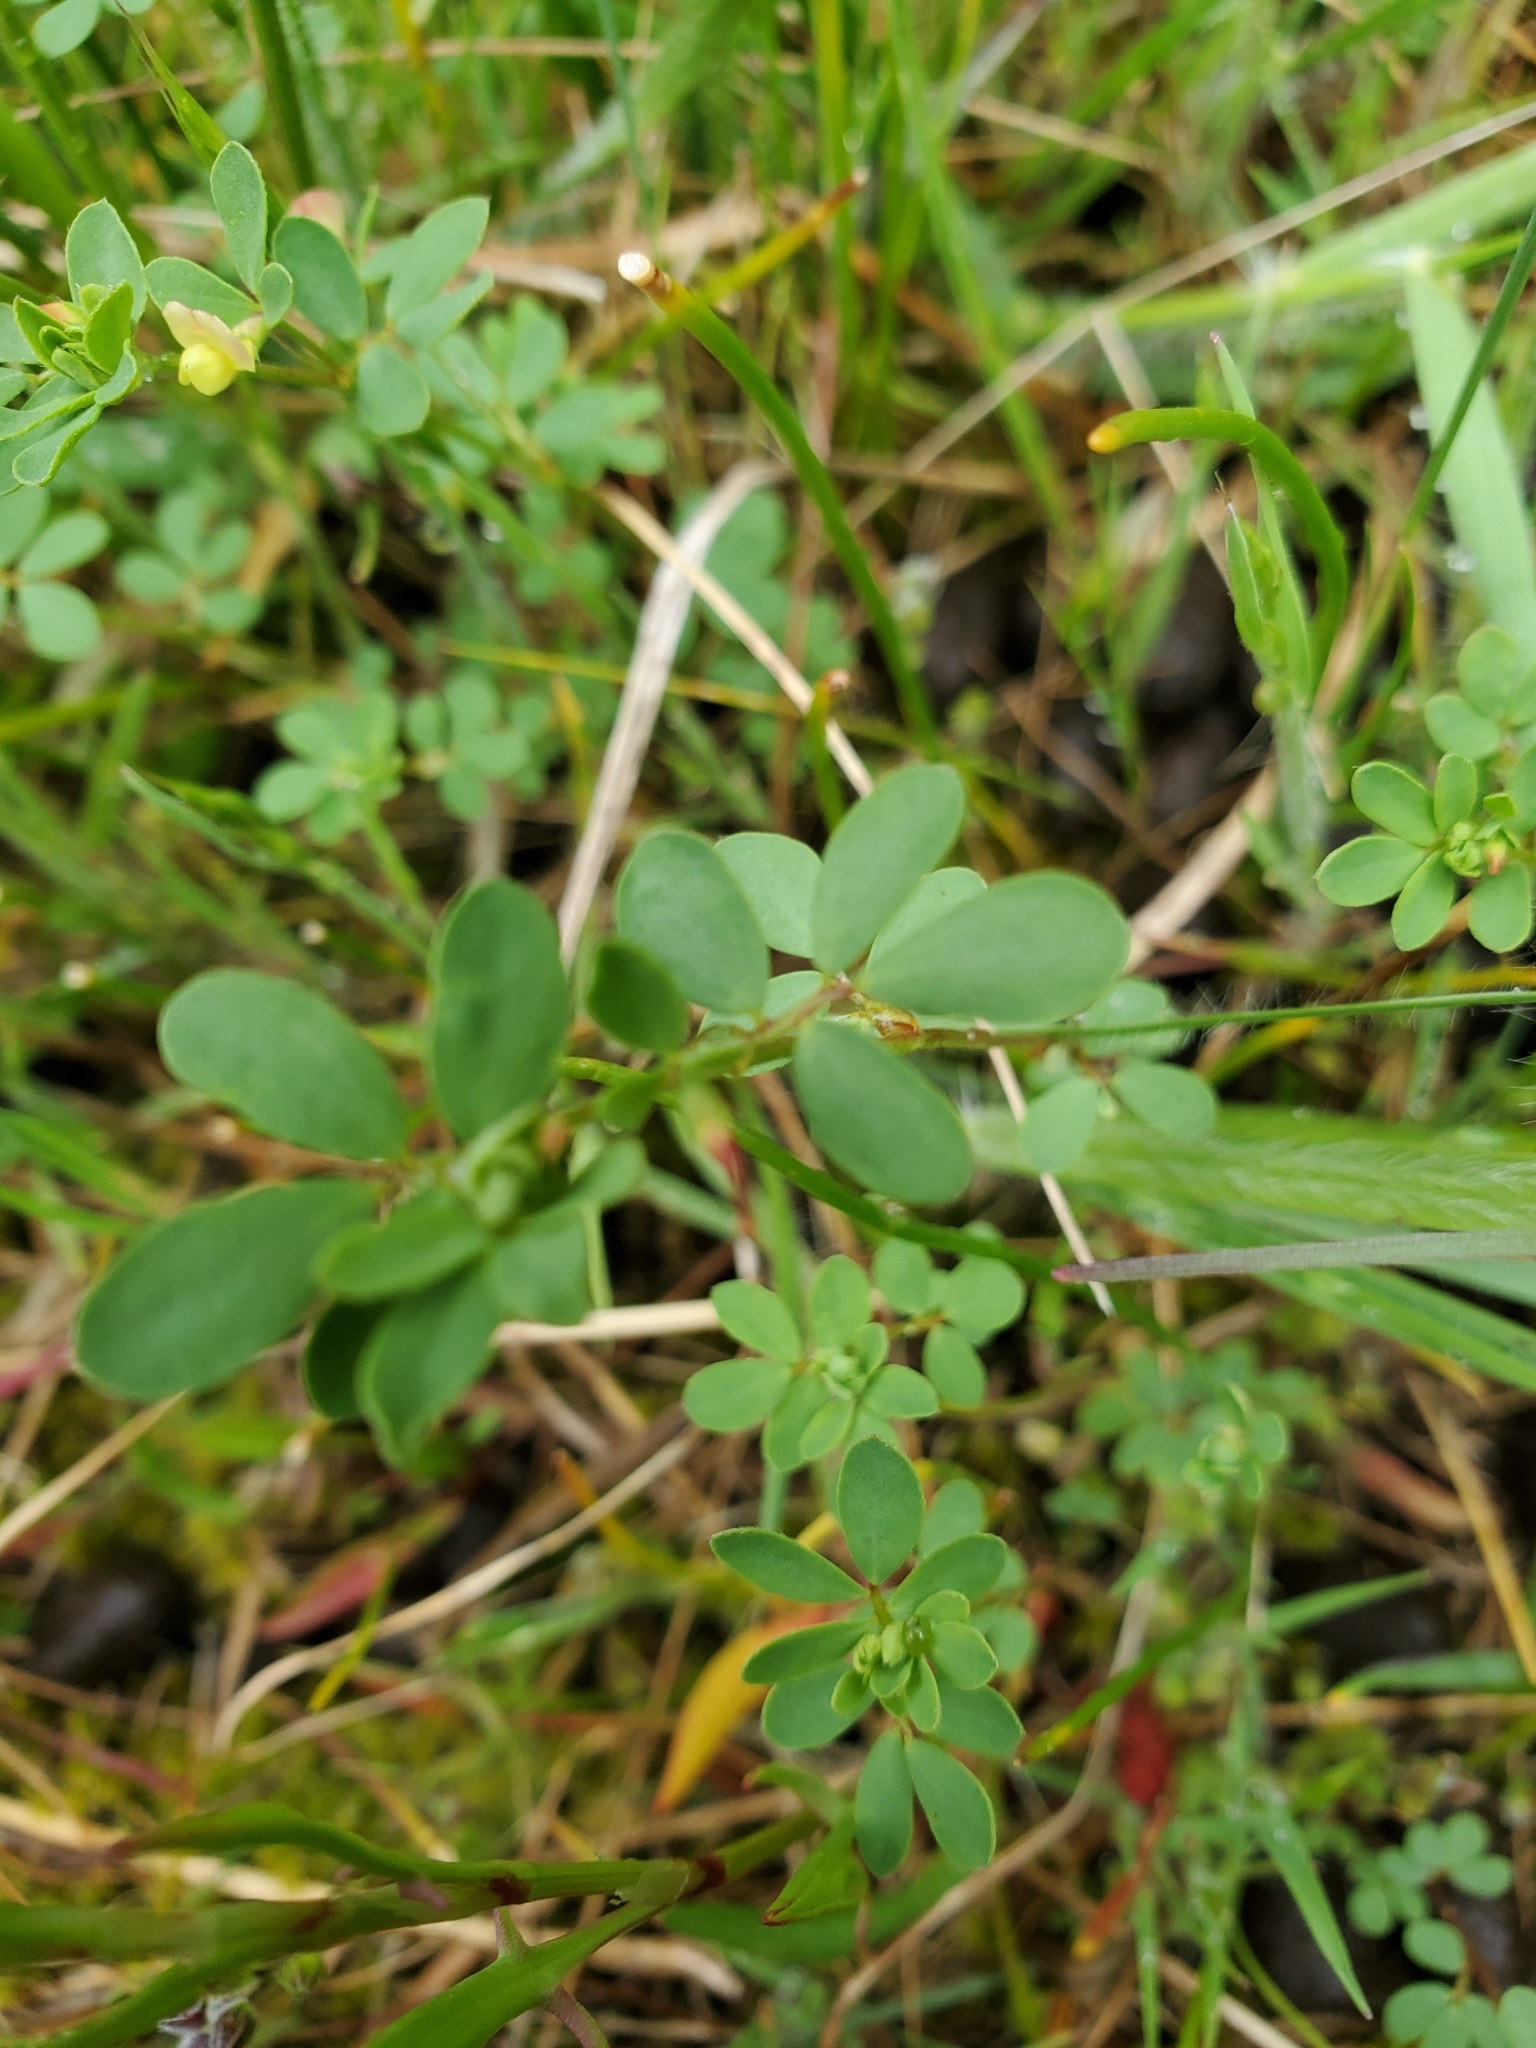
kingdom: Plantae
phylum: Tracheophyta
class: Magnoliopsida
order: Fabales
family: Fabaceae
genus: Acmispon
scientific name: Acmispon parviflorus
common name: Desert deer-vetch
